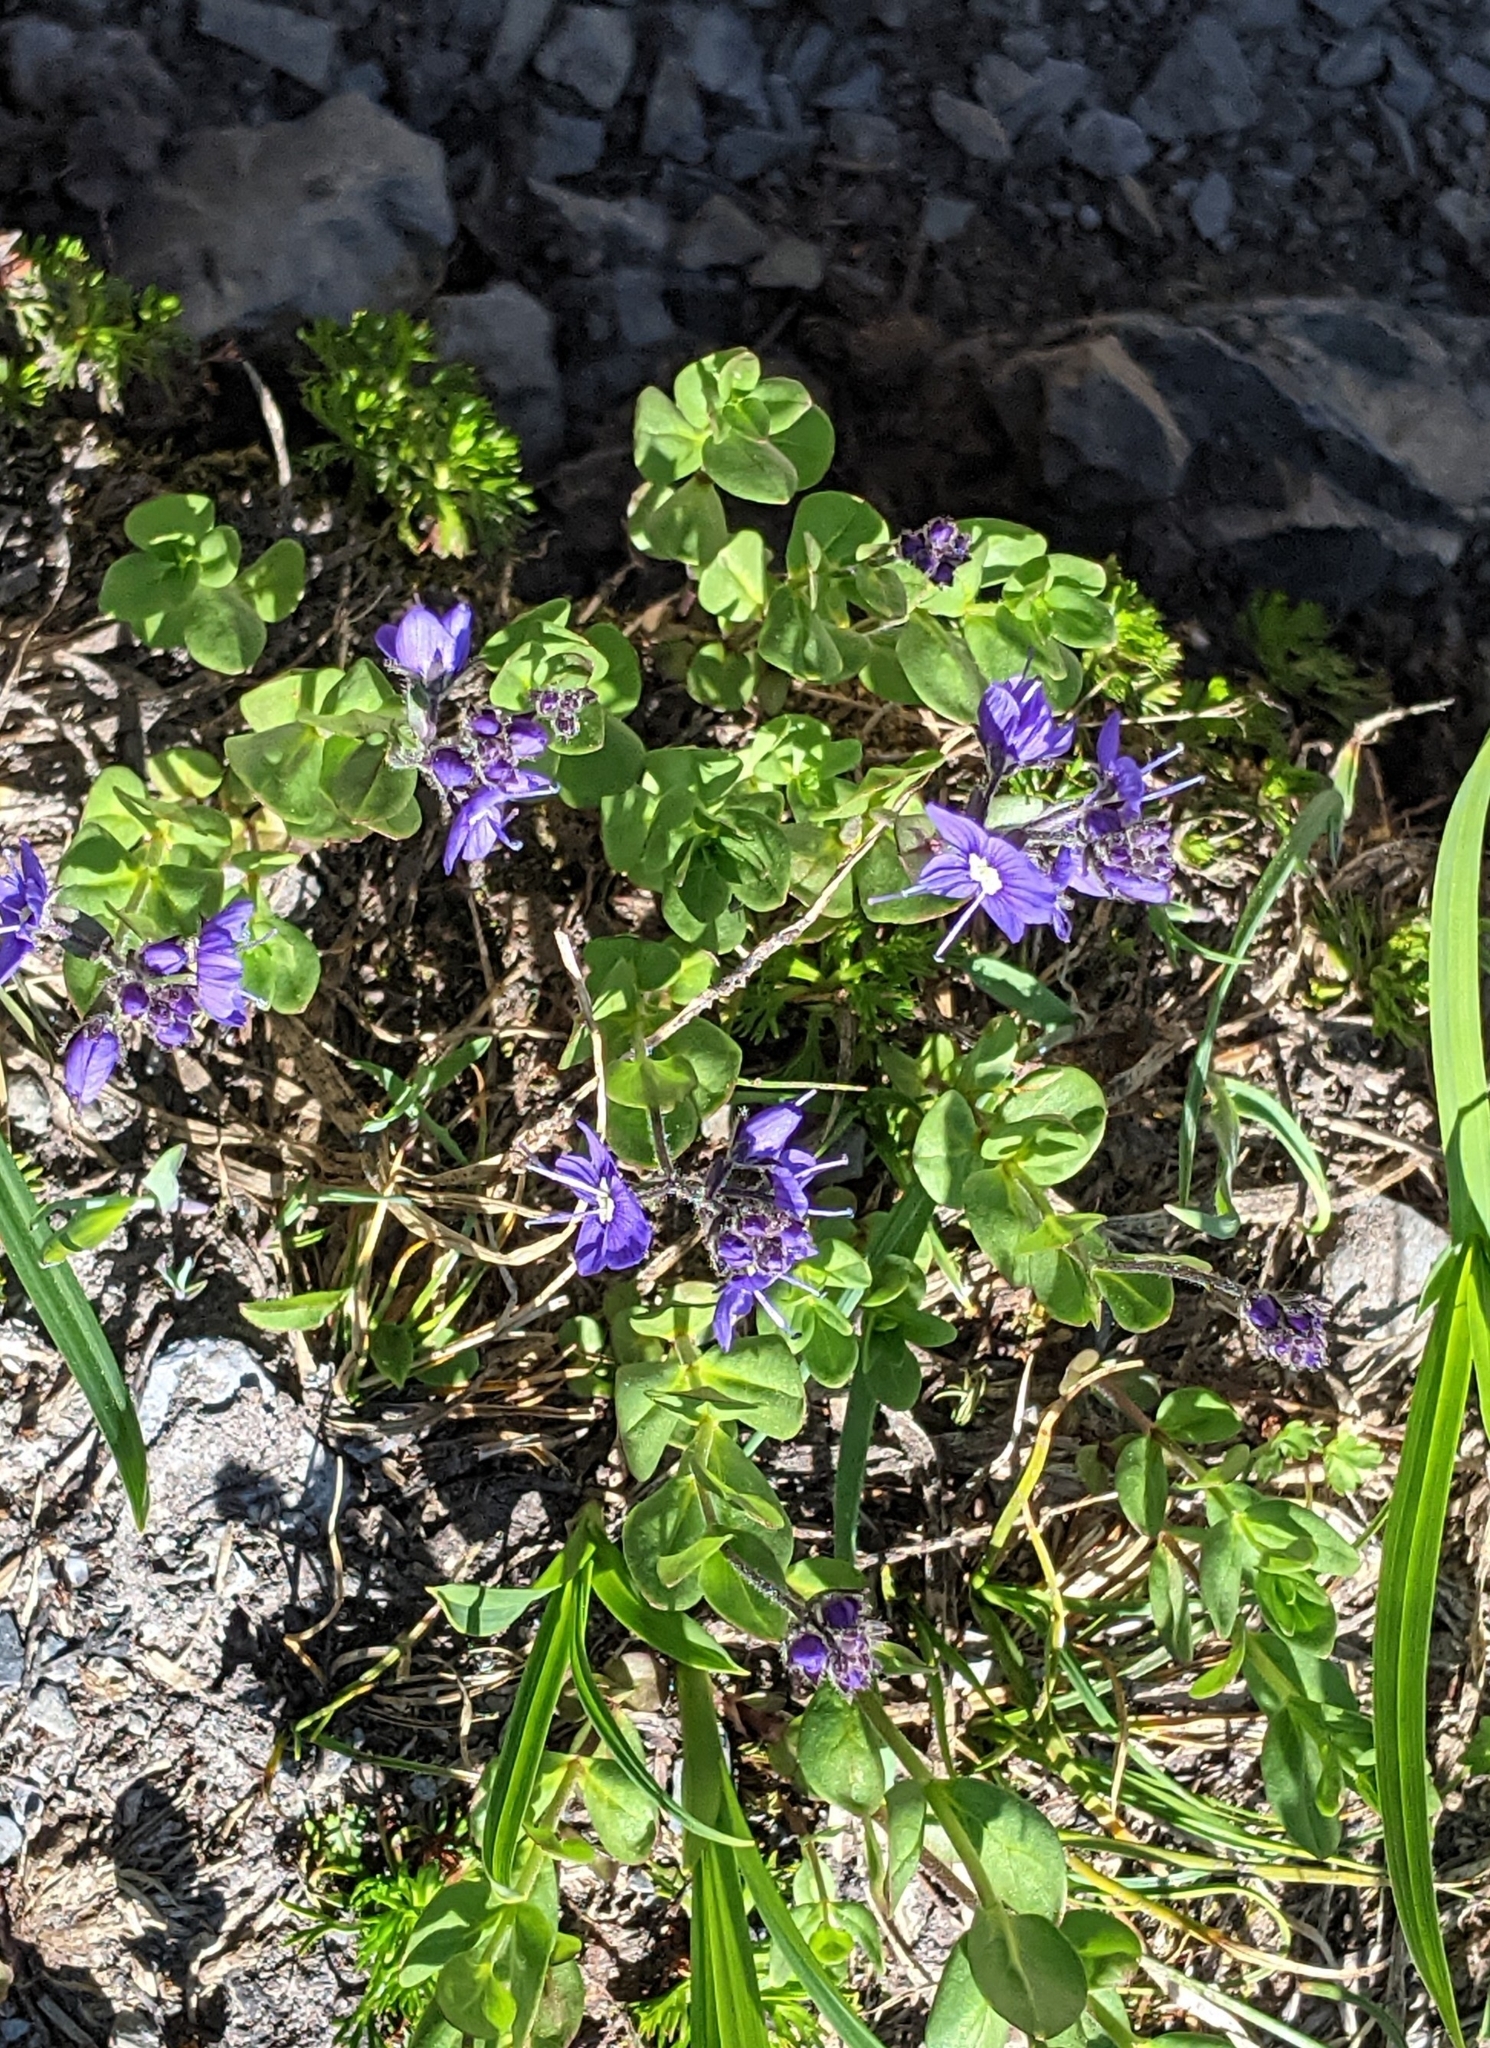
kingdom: Plantae
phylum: Tracheophyta
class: Magnoliopsida
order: Lamiales
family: Plantaginaceae
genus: Veronica
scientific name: Veronica cusickii
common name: Cusick's speedwell
